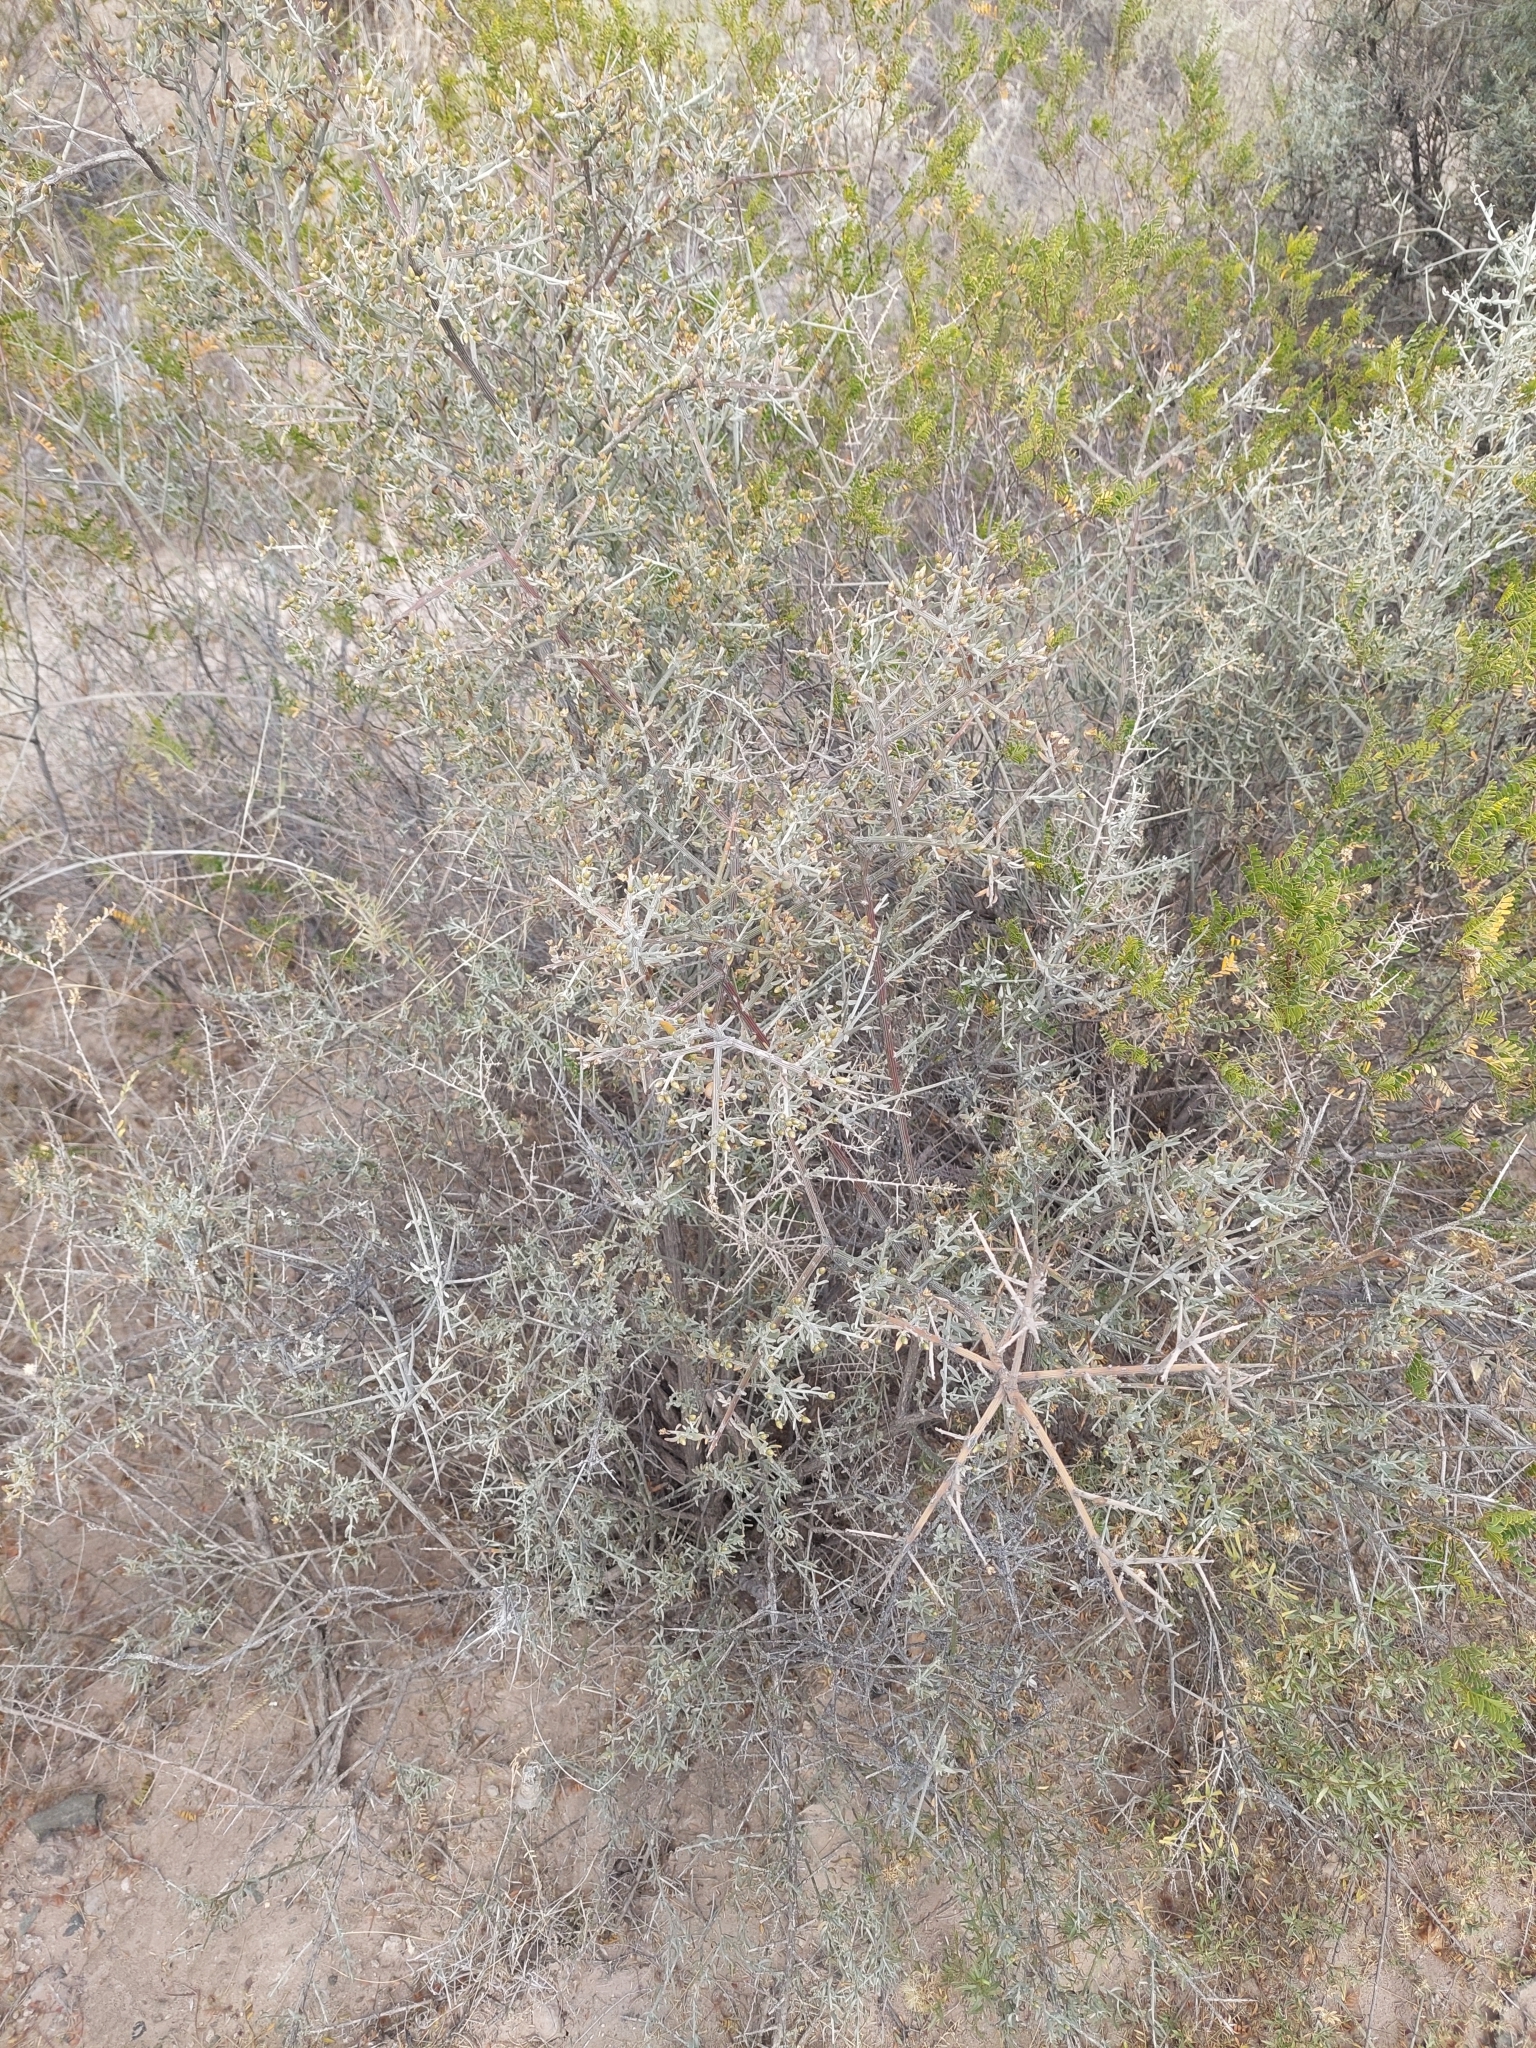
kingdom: Plantae
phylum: Tracheophyta
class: Magnoliopsida
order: Asterales
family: Asteraceae
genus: Cyclolepis
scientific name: Cyclolepis genistoides
